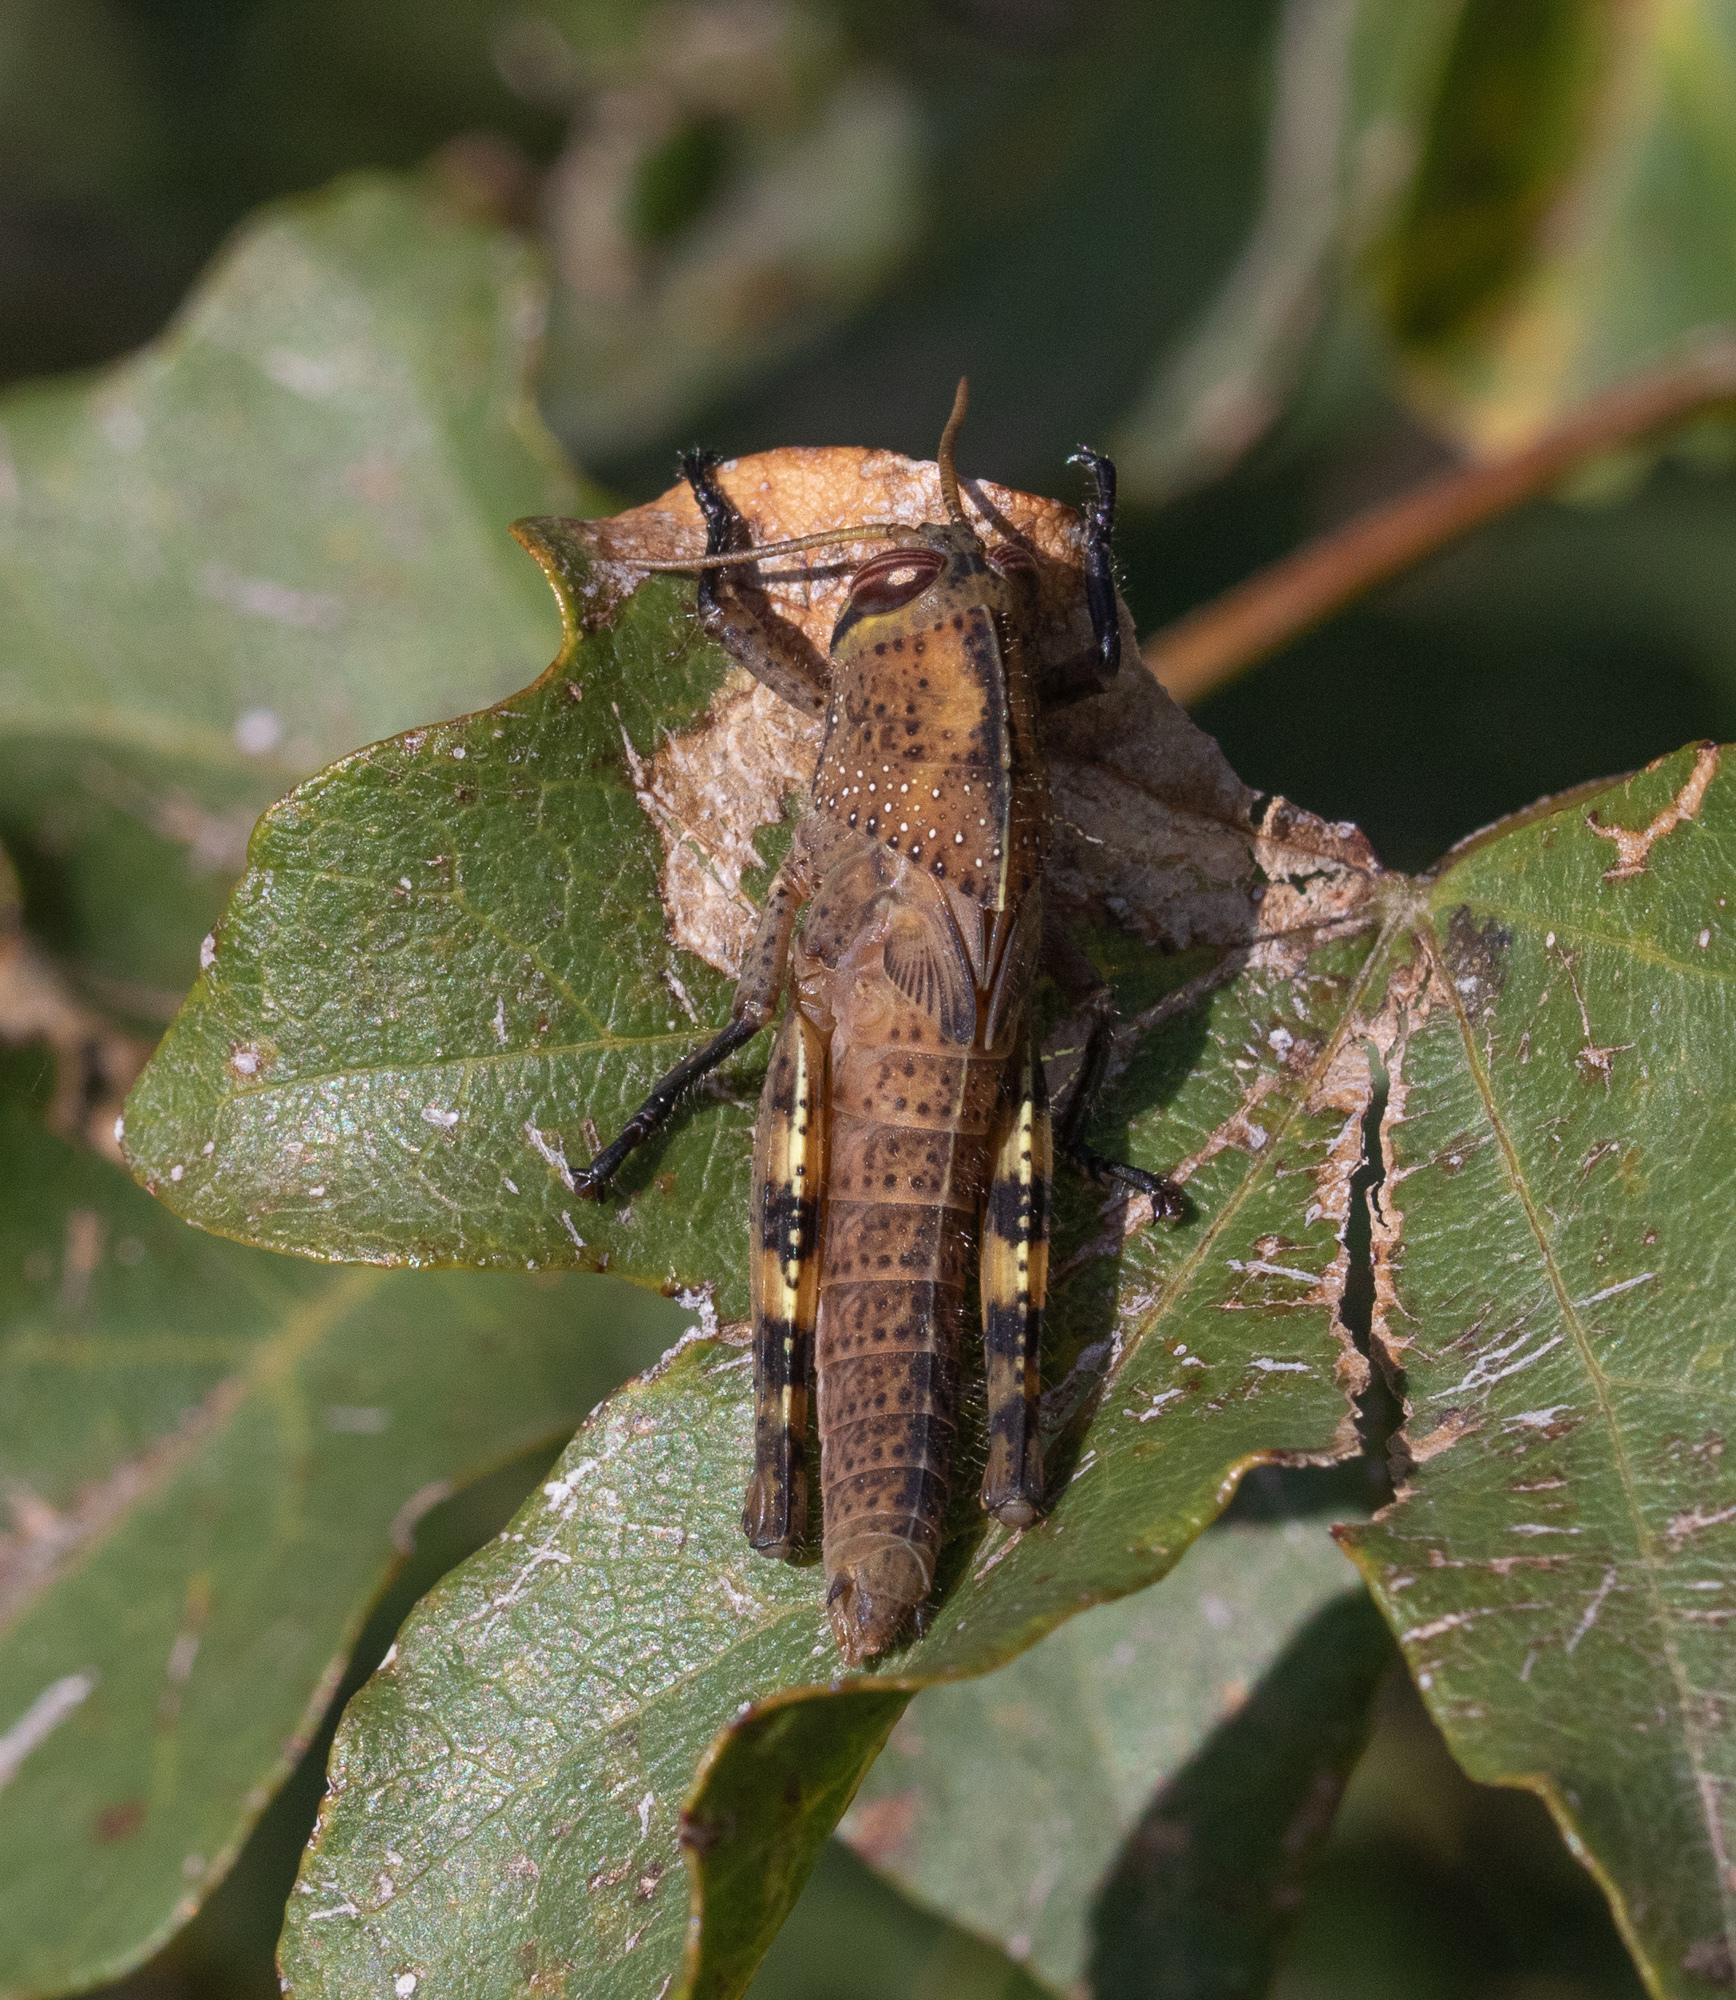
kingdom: Animalia
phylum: Arthropoda
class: Insecta
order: Orthoptera
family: Acrididae
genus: Anacridium
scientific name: Anacridium aegyptium
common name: Egyptian grasshopper
